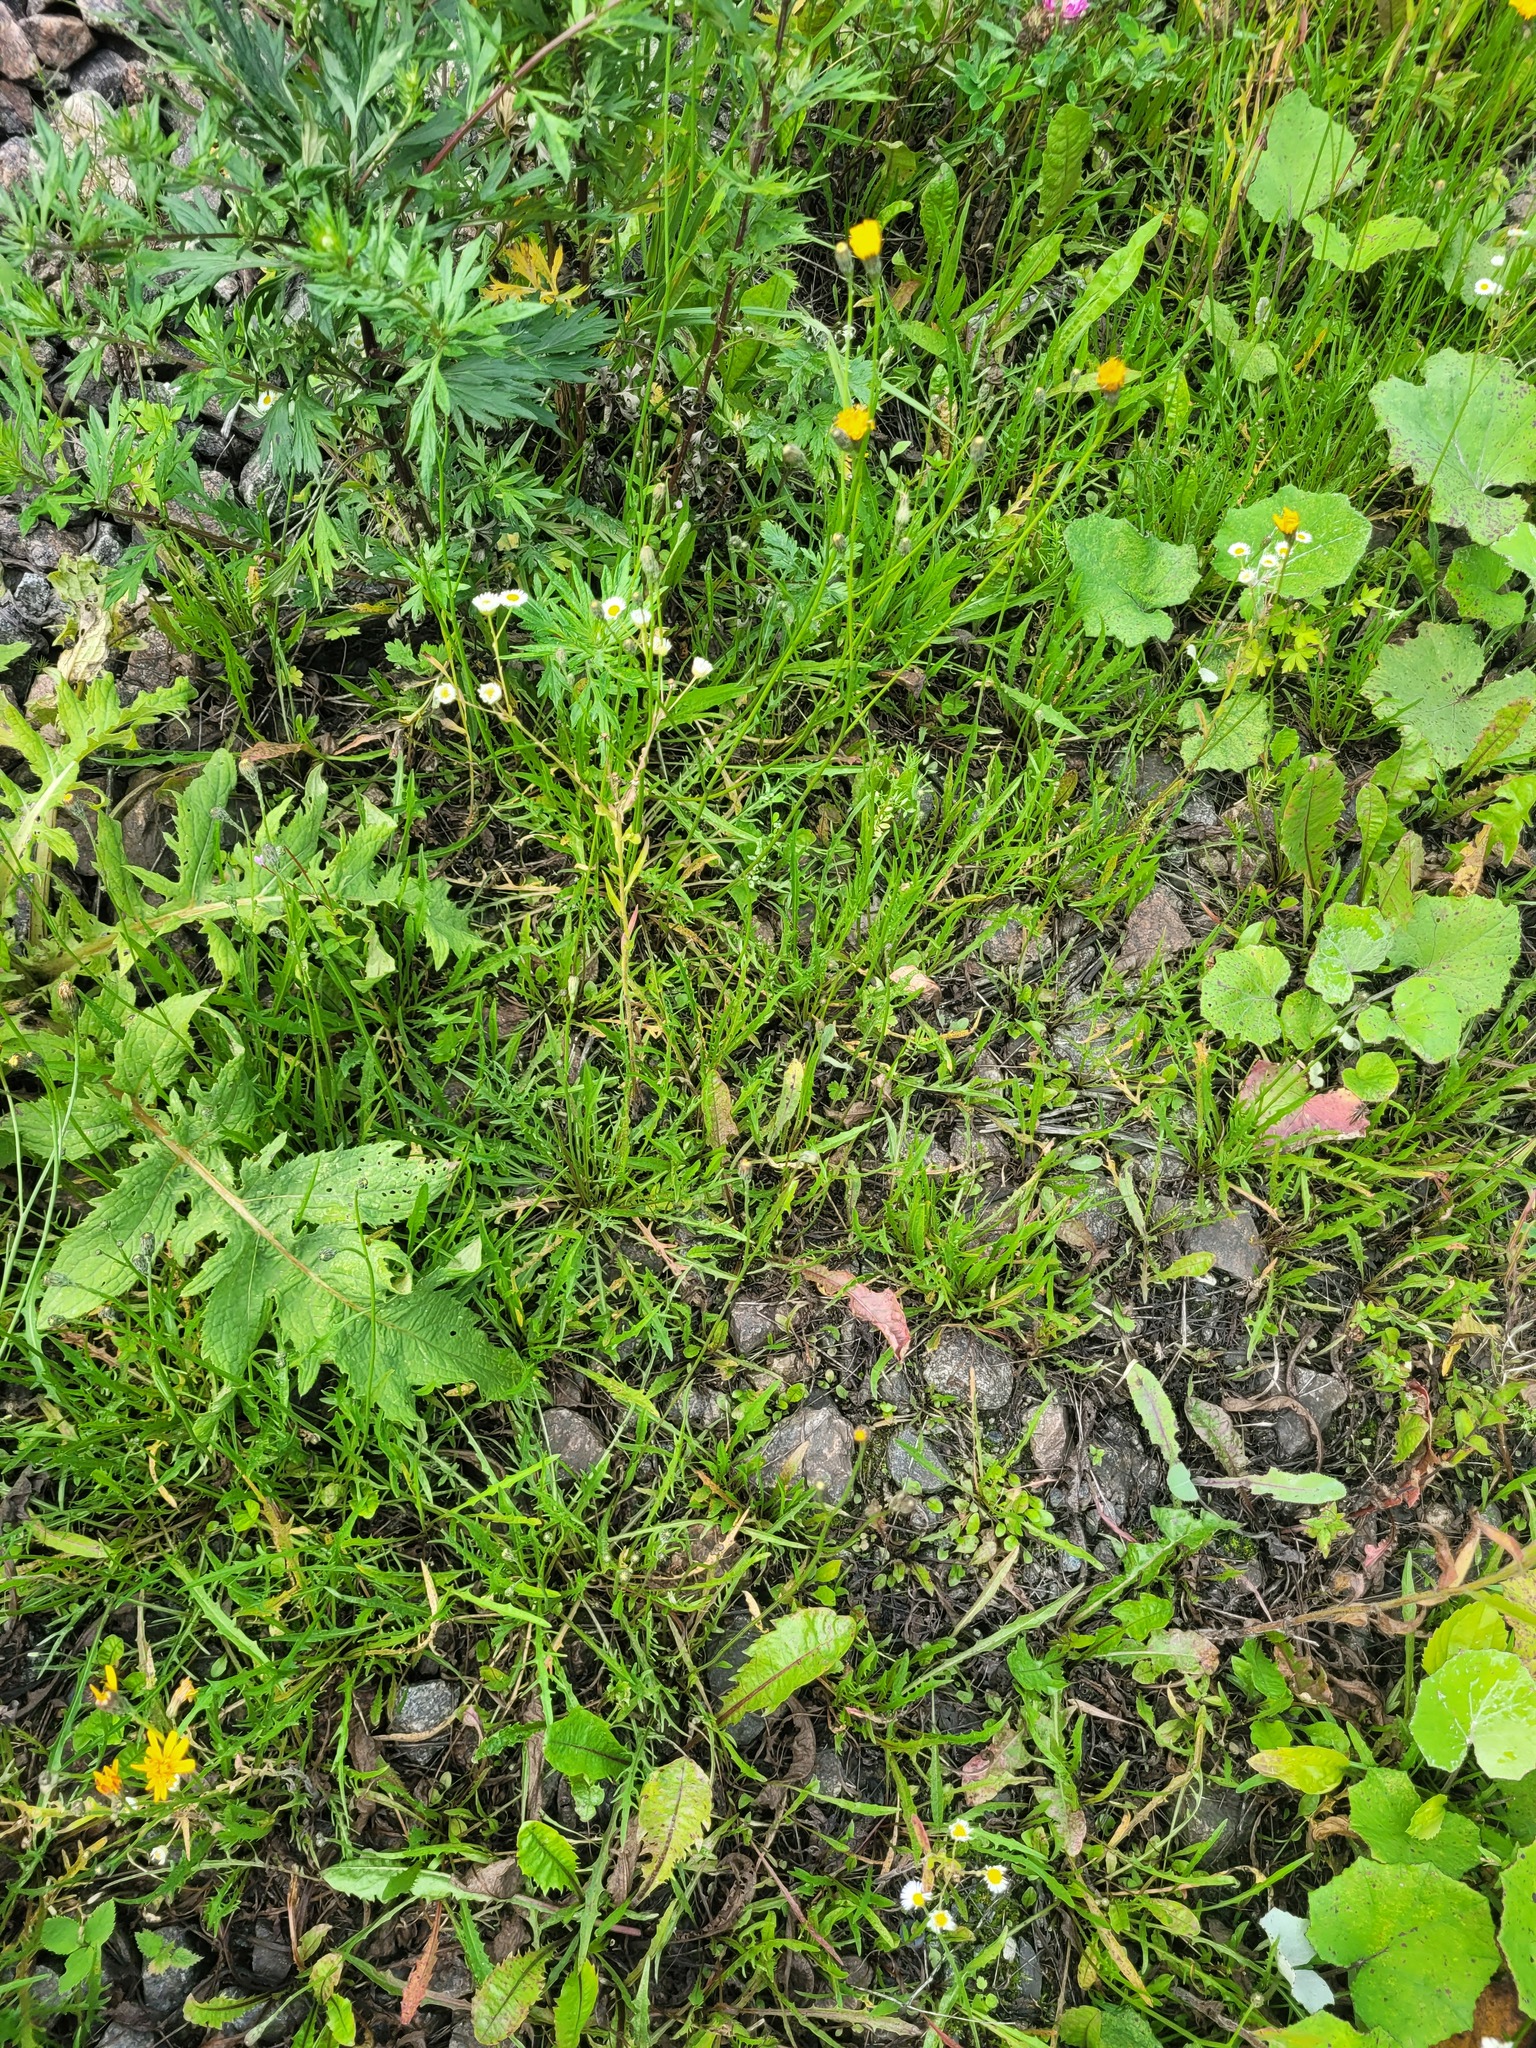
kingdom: Plantae
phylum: Tracheophyta
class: Magnoliopsida
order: Asterales
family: Asteraceae
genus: Scorzoneroides
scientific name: Scorzoneroides autumnalis
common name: Autumn hawkbit
